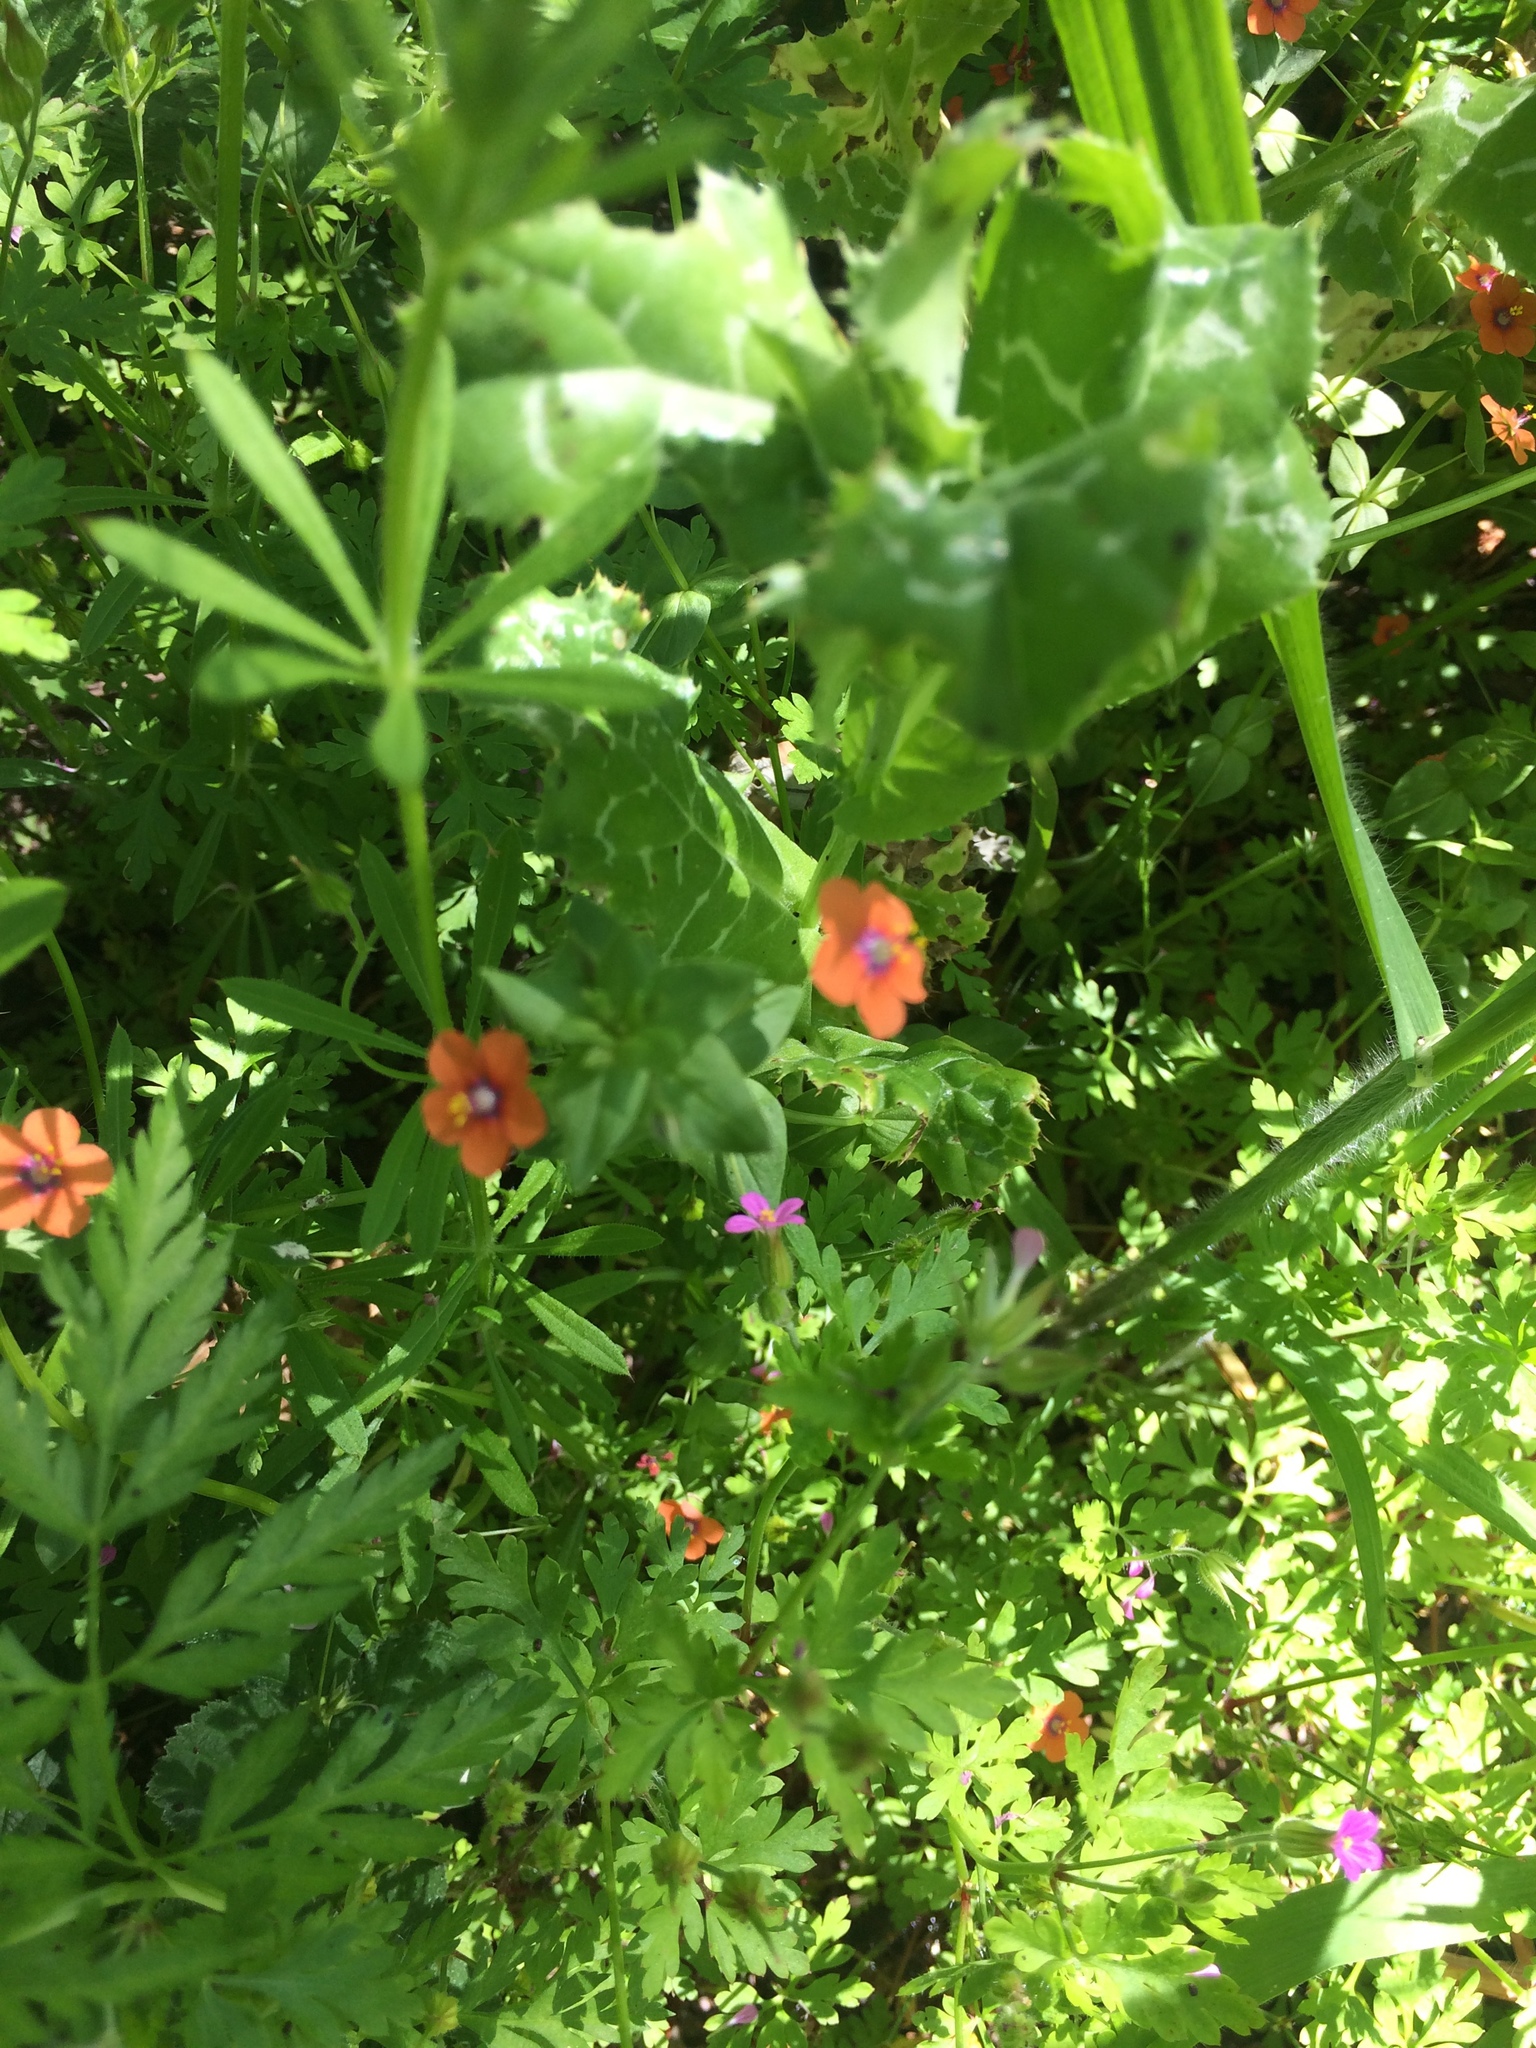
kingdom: Plantae
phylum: Tracheophyta
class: Magnoliopsida
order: Ericales
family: Primulaceae
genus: Lysimachia
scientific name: Lysimachia arvensis
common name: Scarlet pimpernel
